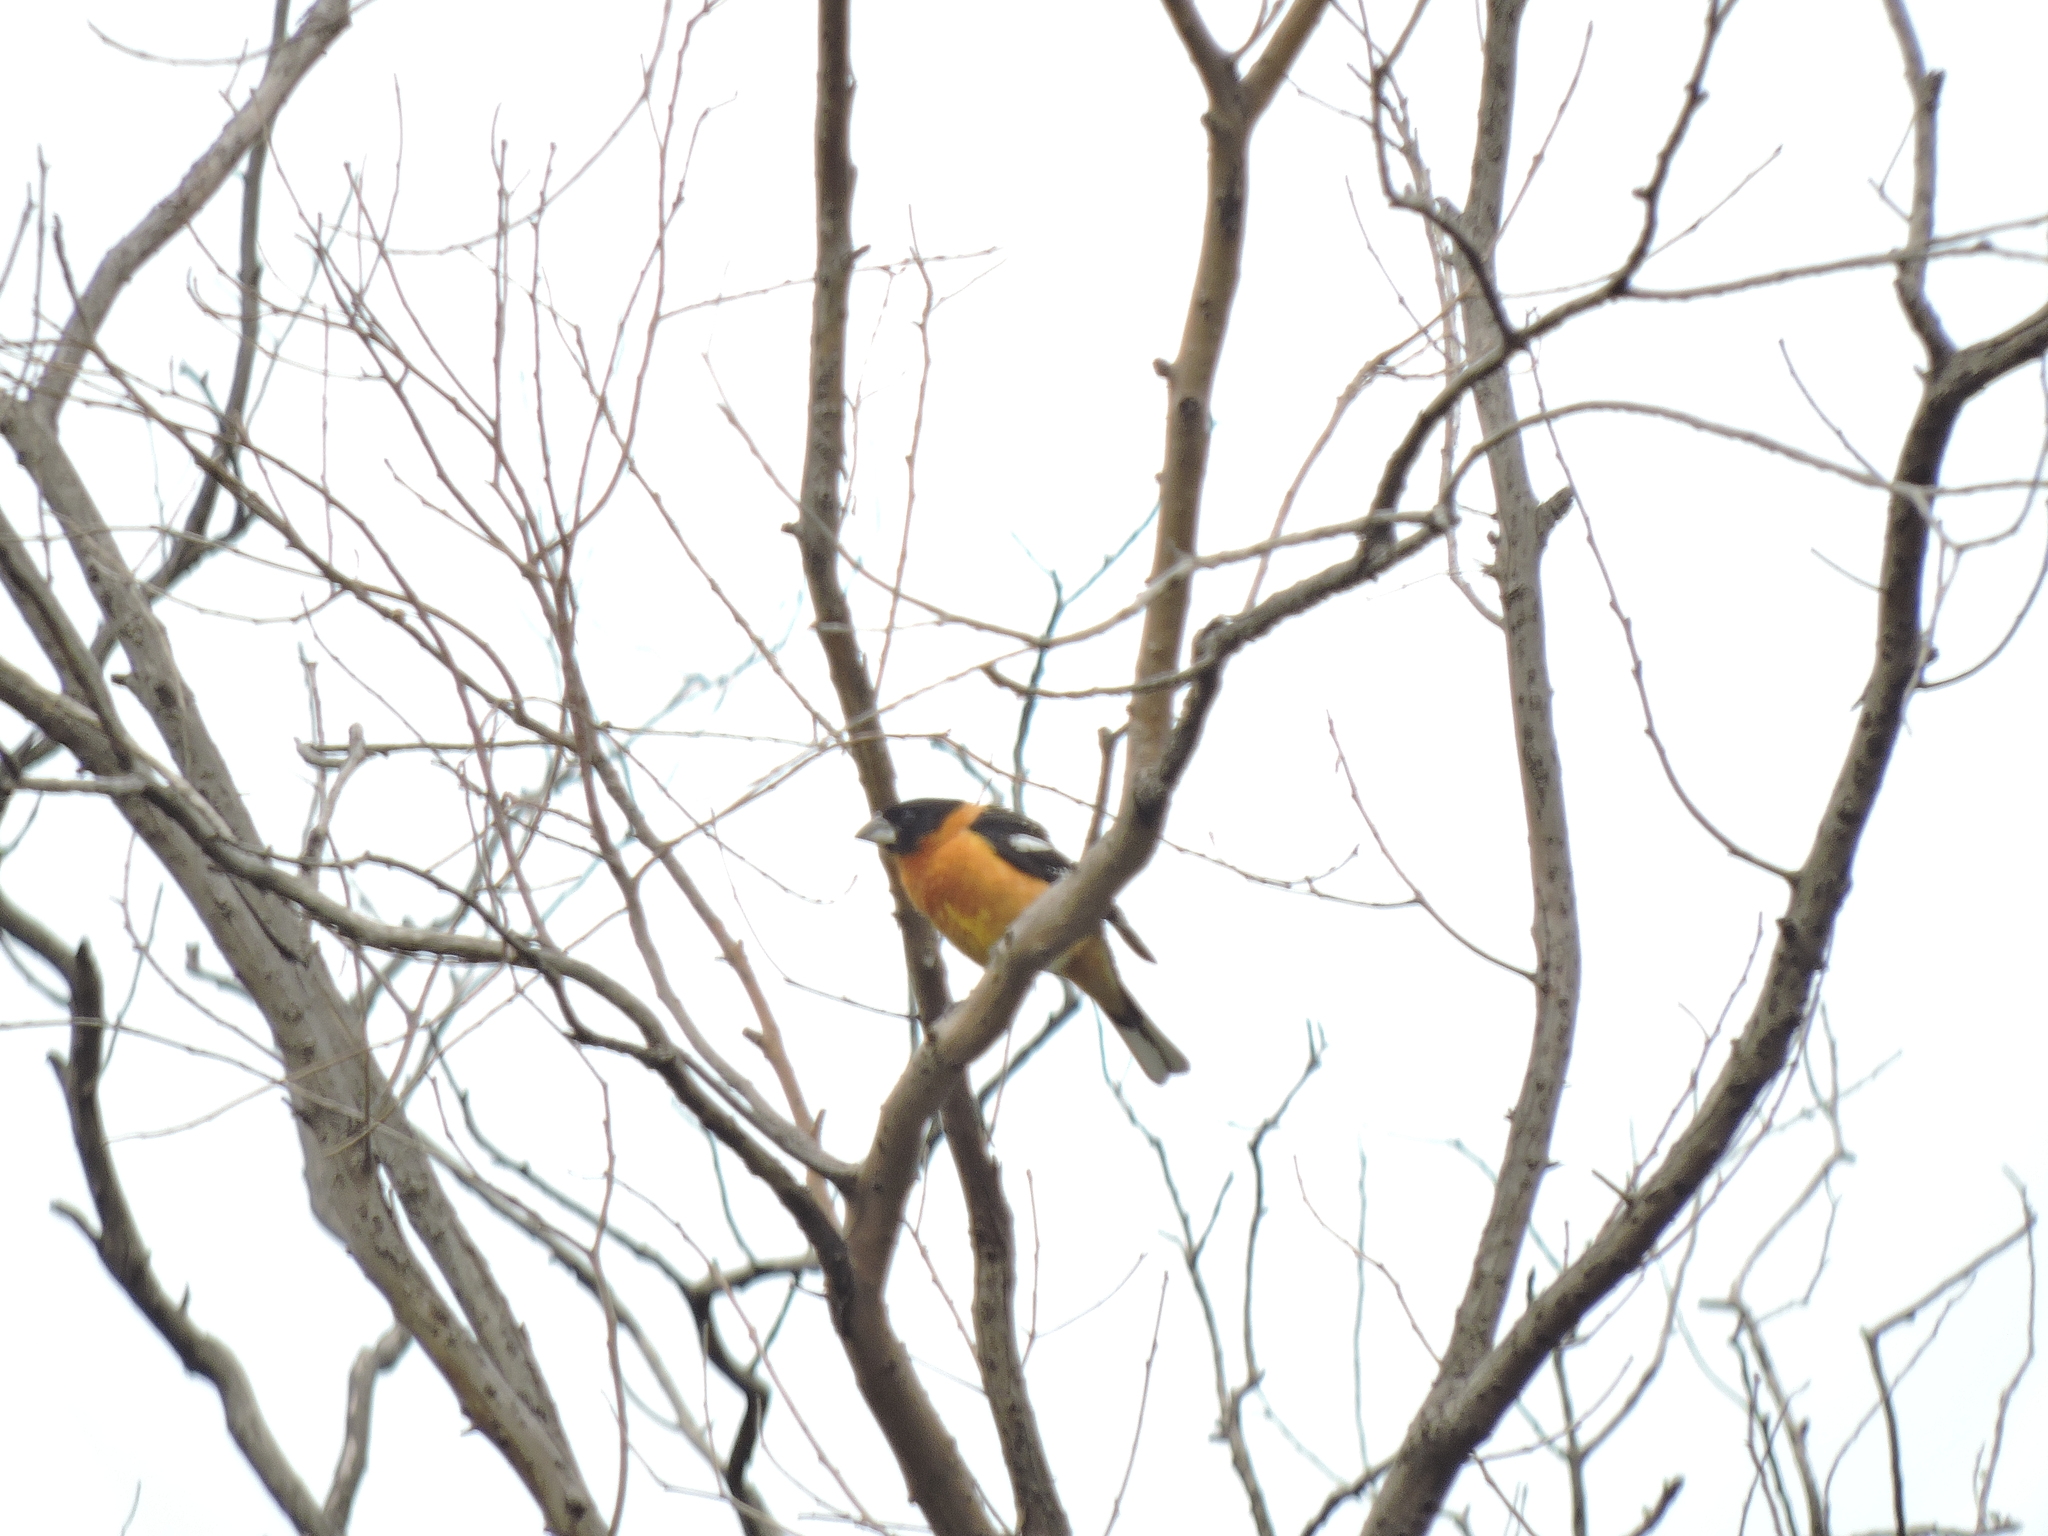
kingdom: Animalia
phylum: Chordata
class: Aves
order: Passeriformes
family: Cardinalidae
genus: Pheucticus
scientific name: Pheucticus melanocephalus
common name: Black-headed grosbeak
